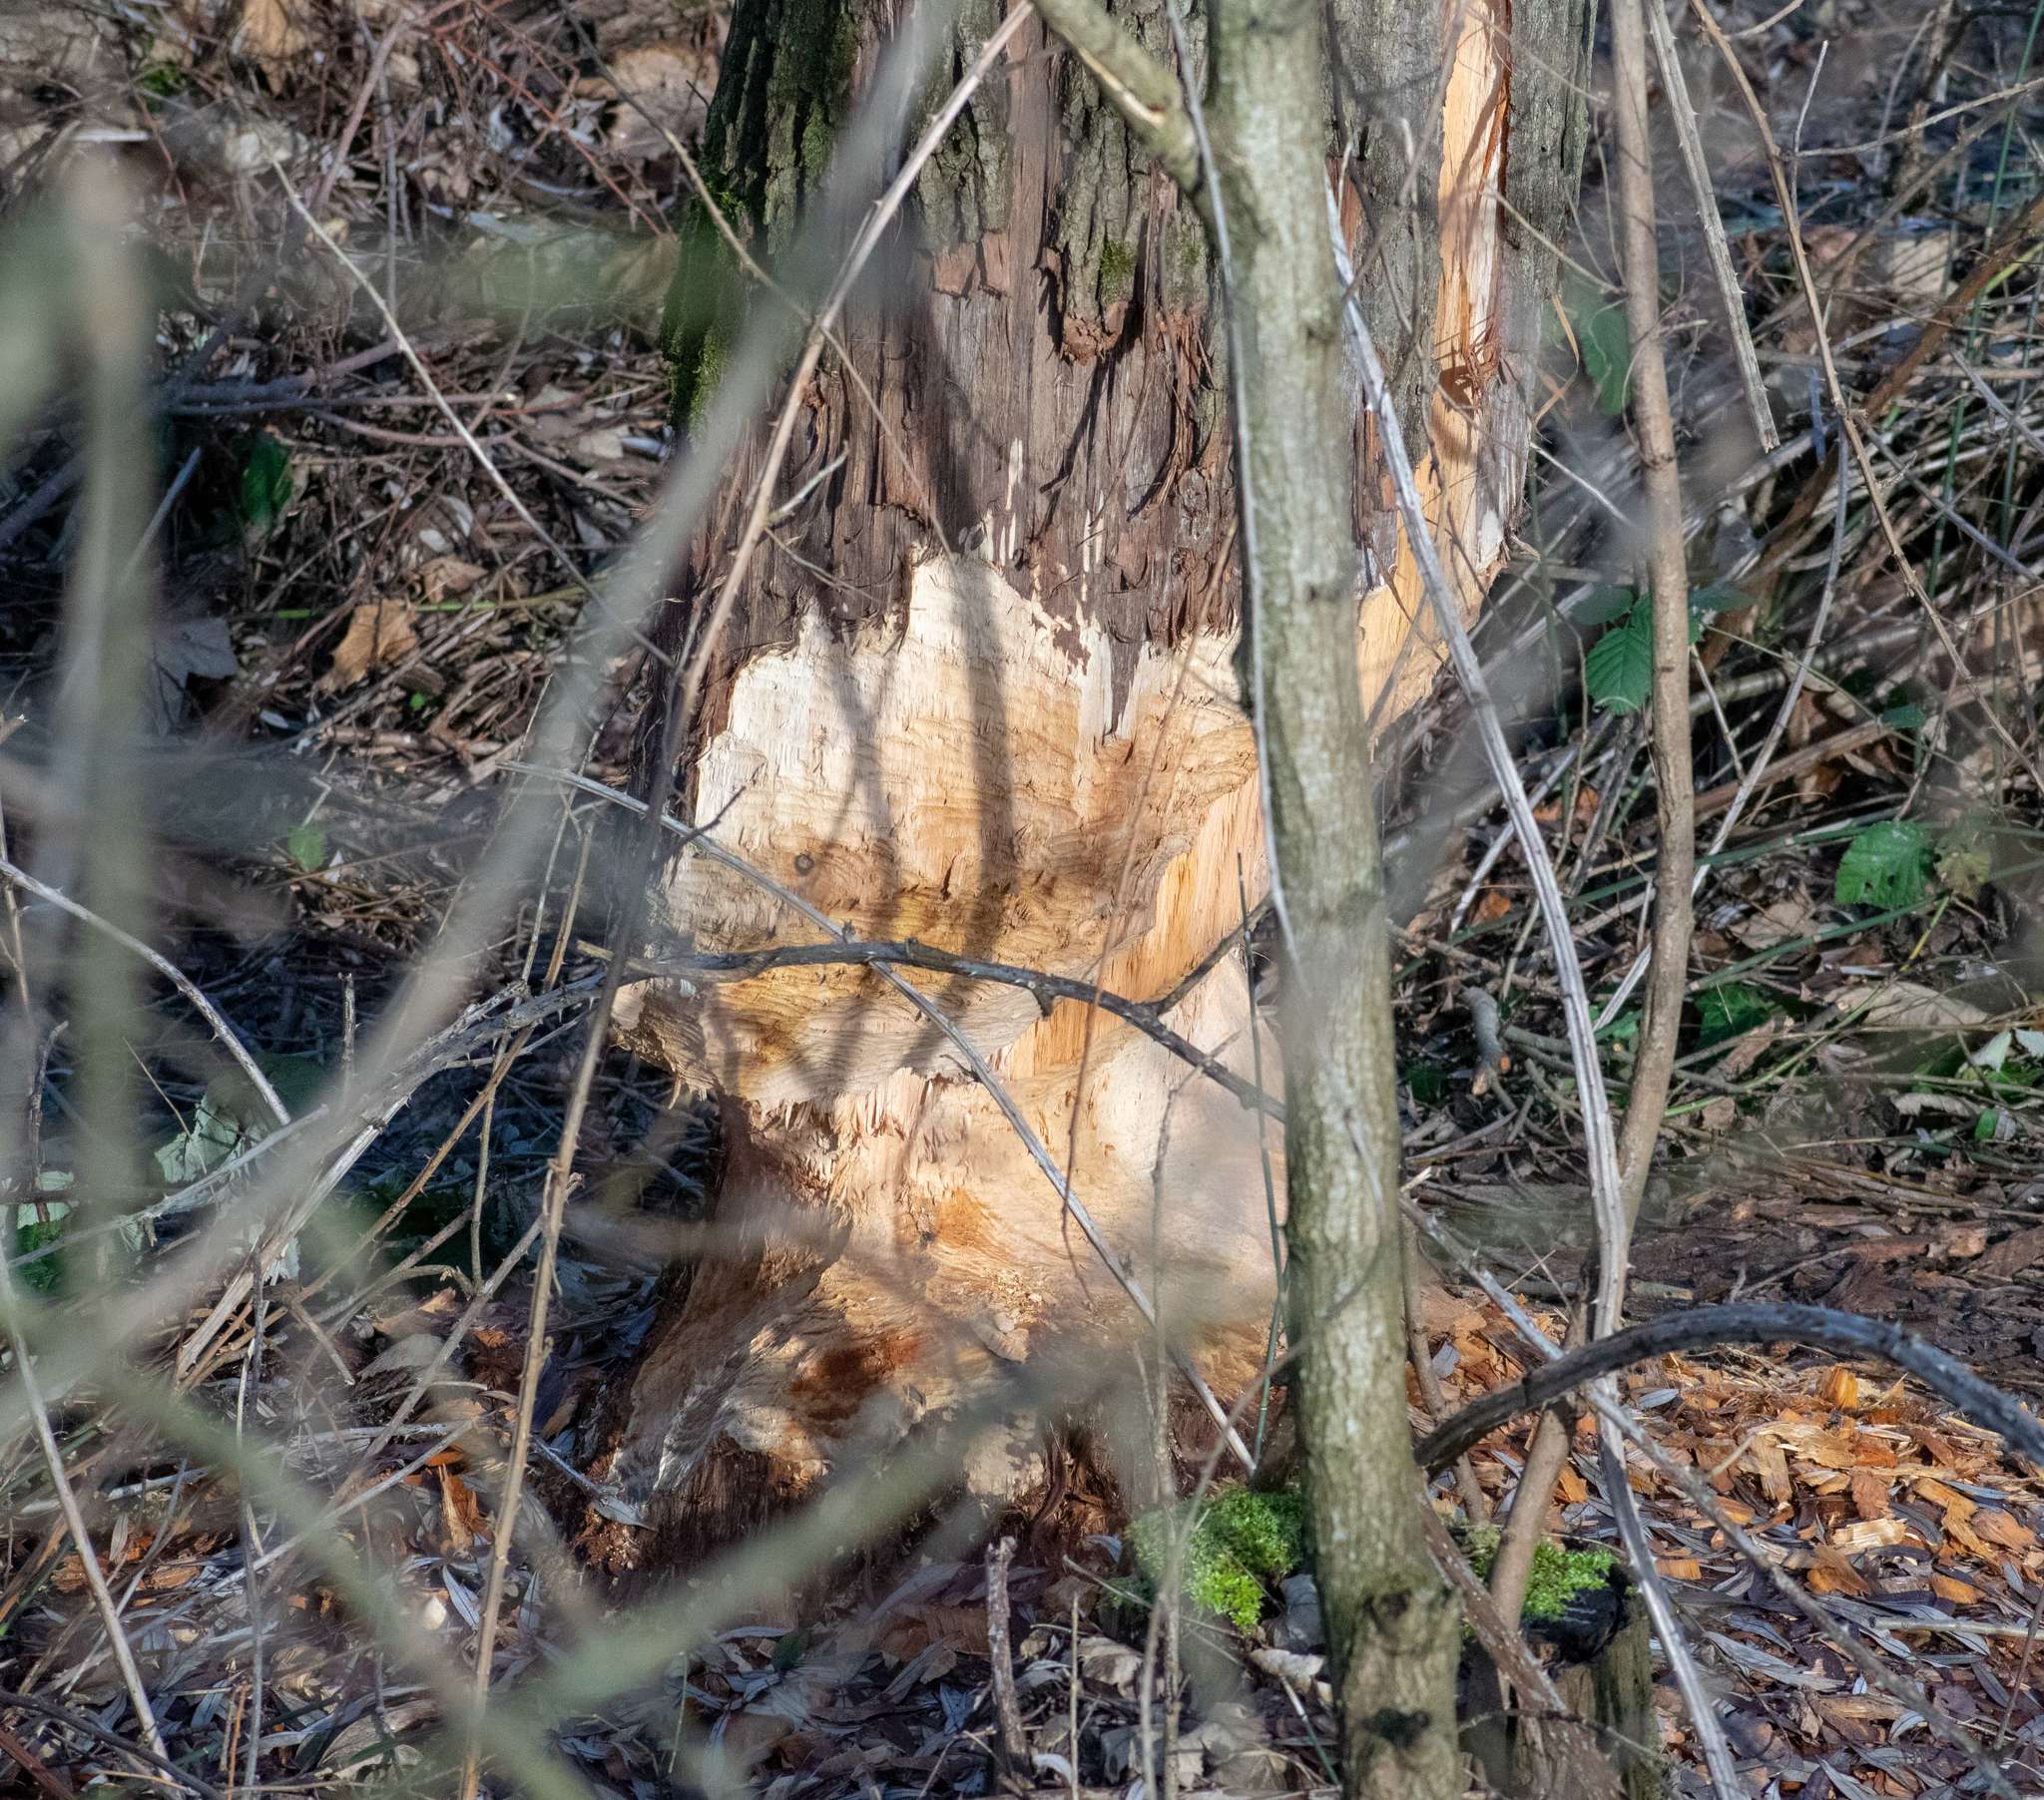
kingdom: Animalia
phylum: Chordata
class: Mammalia
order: Rodentia
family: Castoridae
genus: Castor
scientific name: Castor fiber
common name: Eurasian beaver
